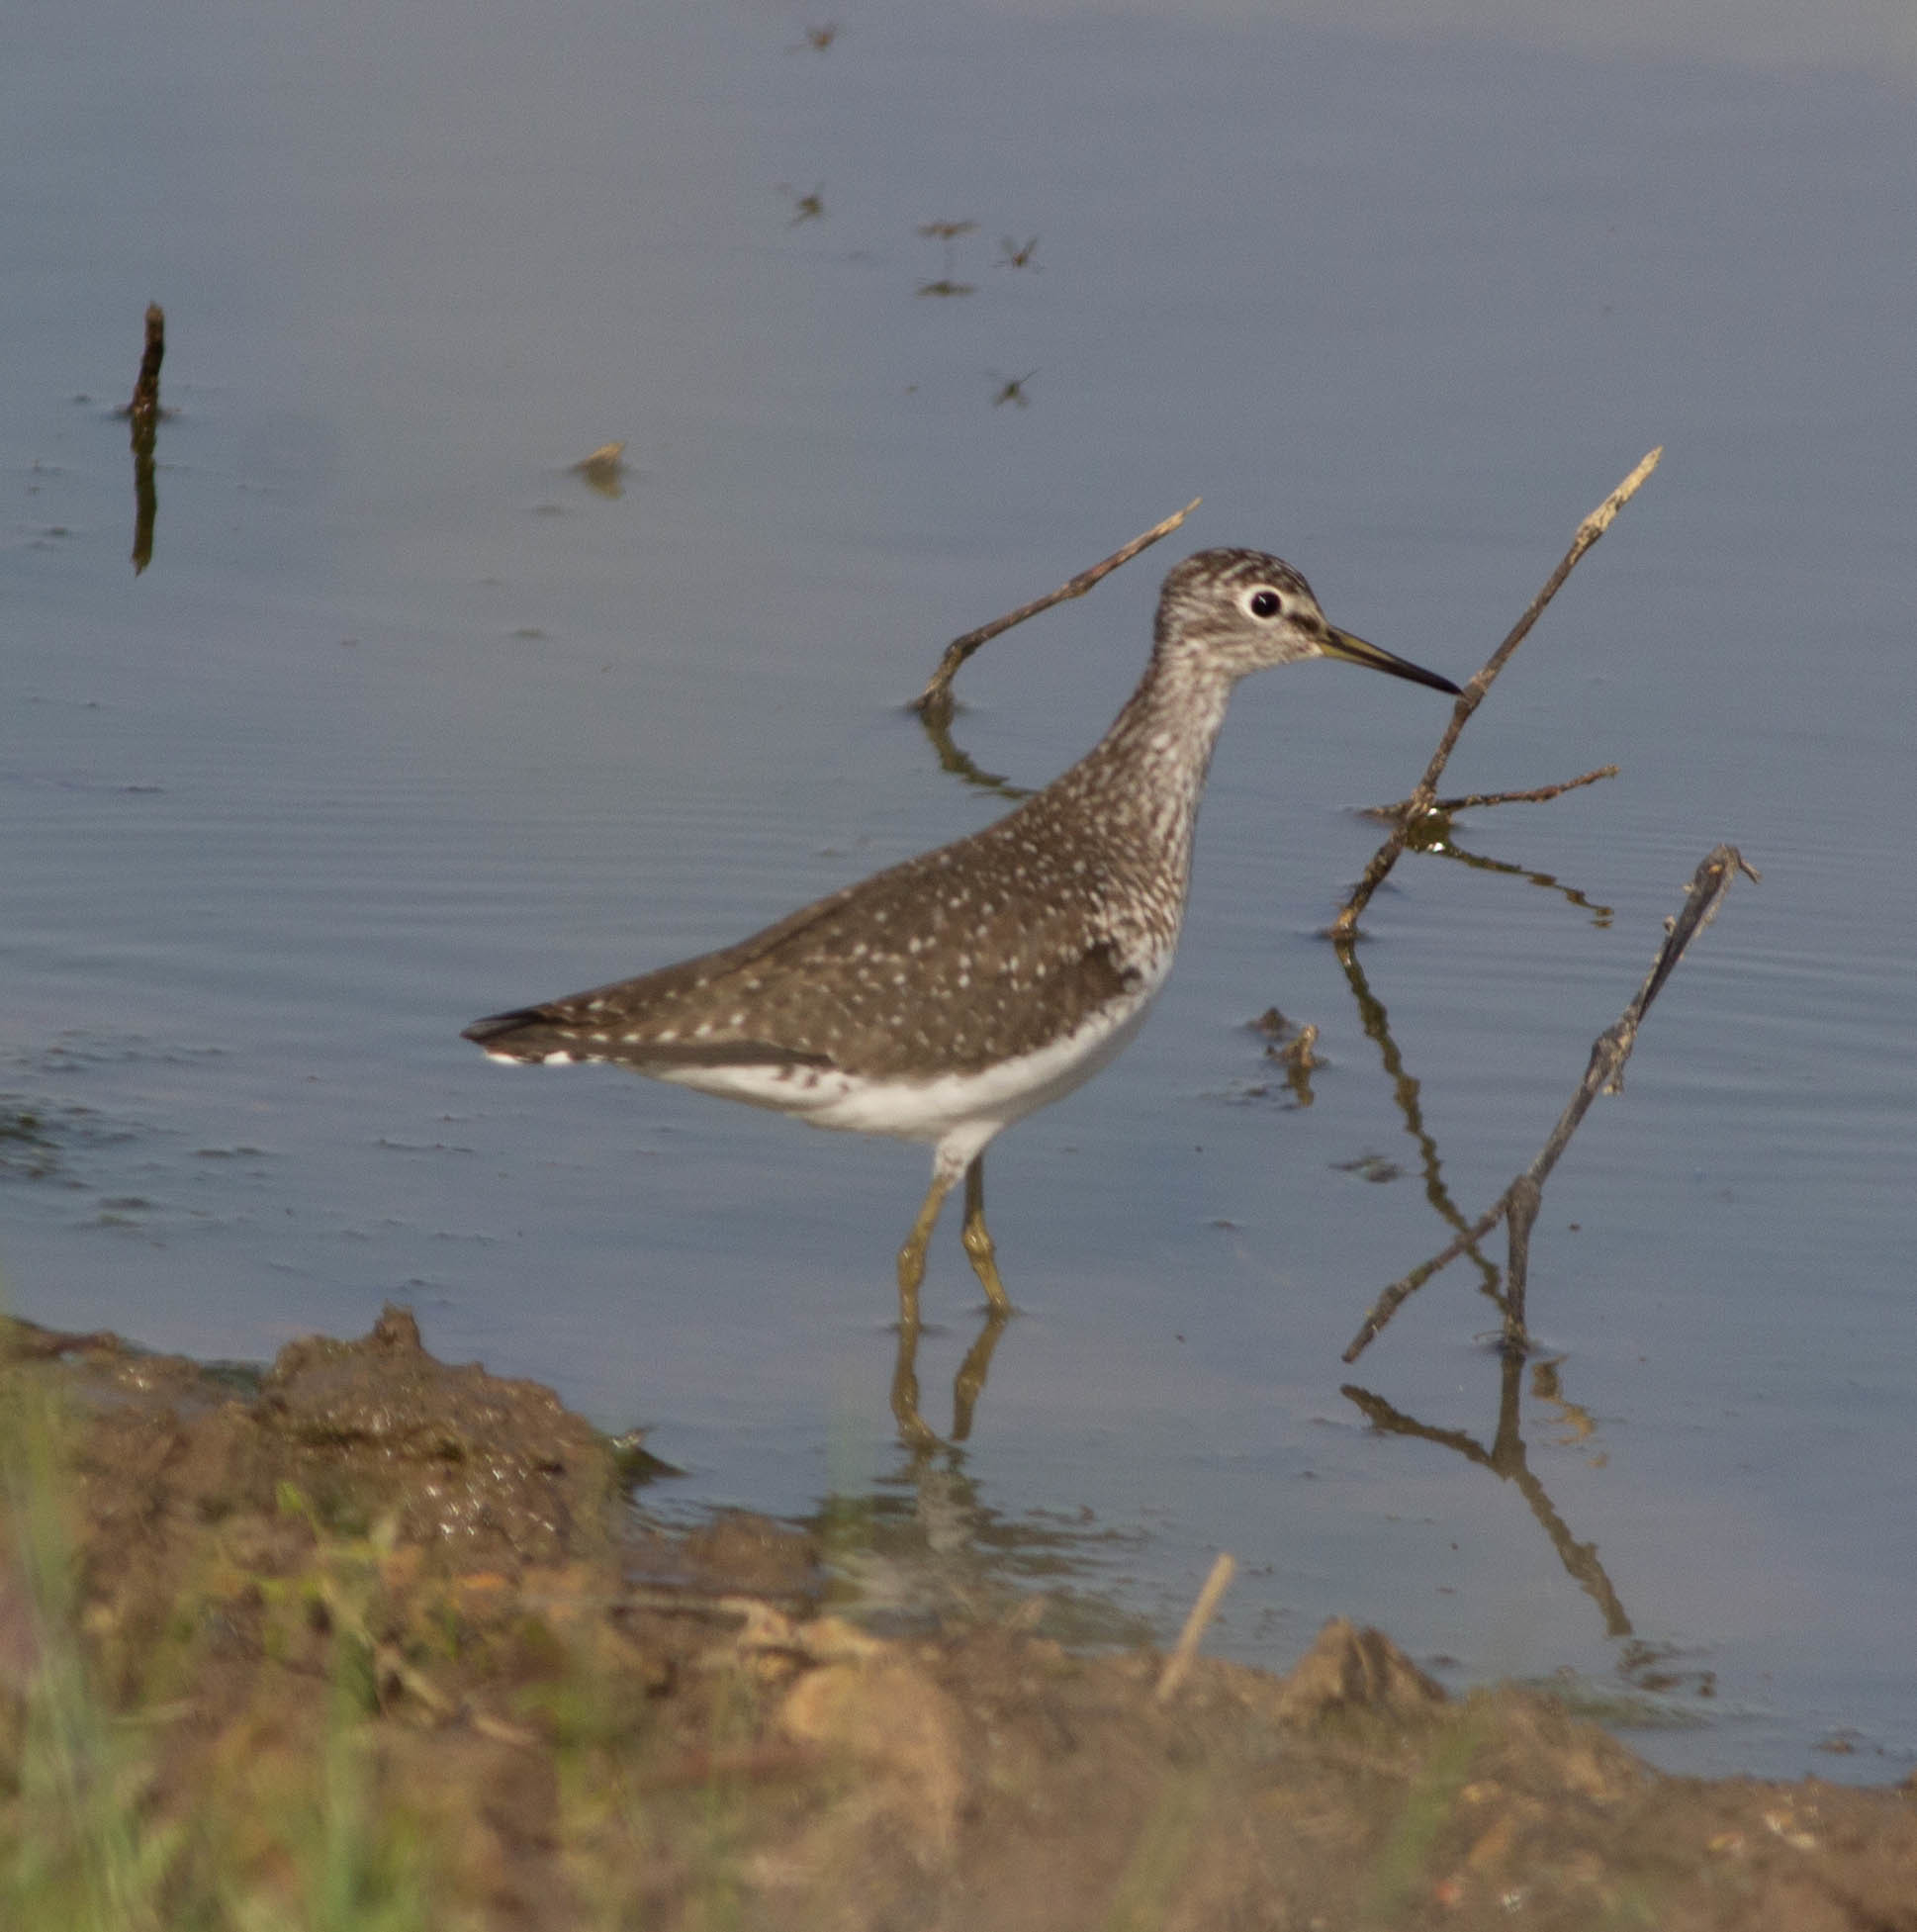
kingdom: Animalia
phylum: Chordata
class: Aves
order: Charadriiformes
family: Scolopacidae
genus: Tringa
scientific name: Tringa solitaria
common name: Solitary sandpiper
